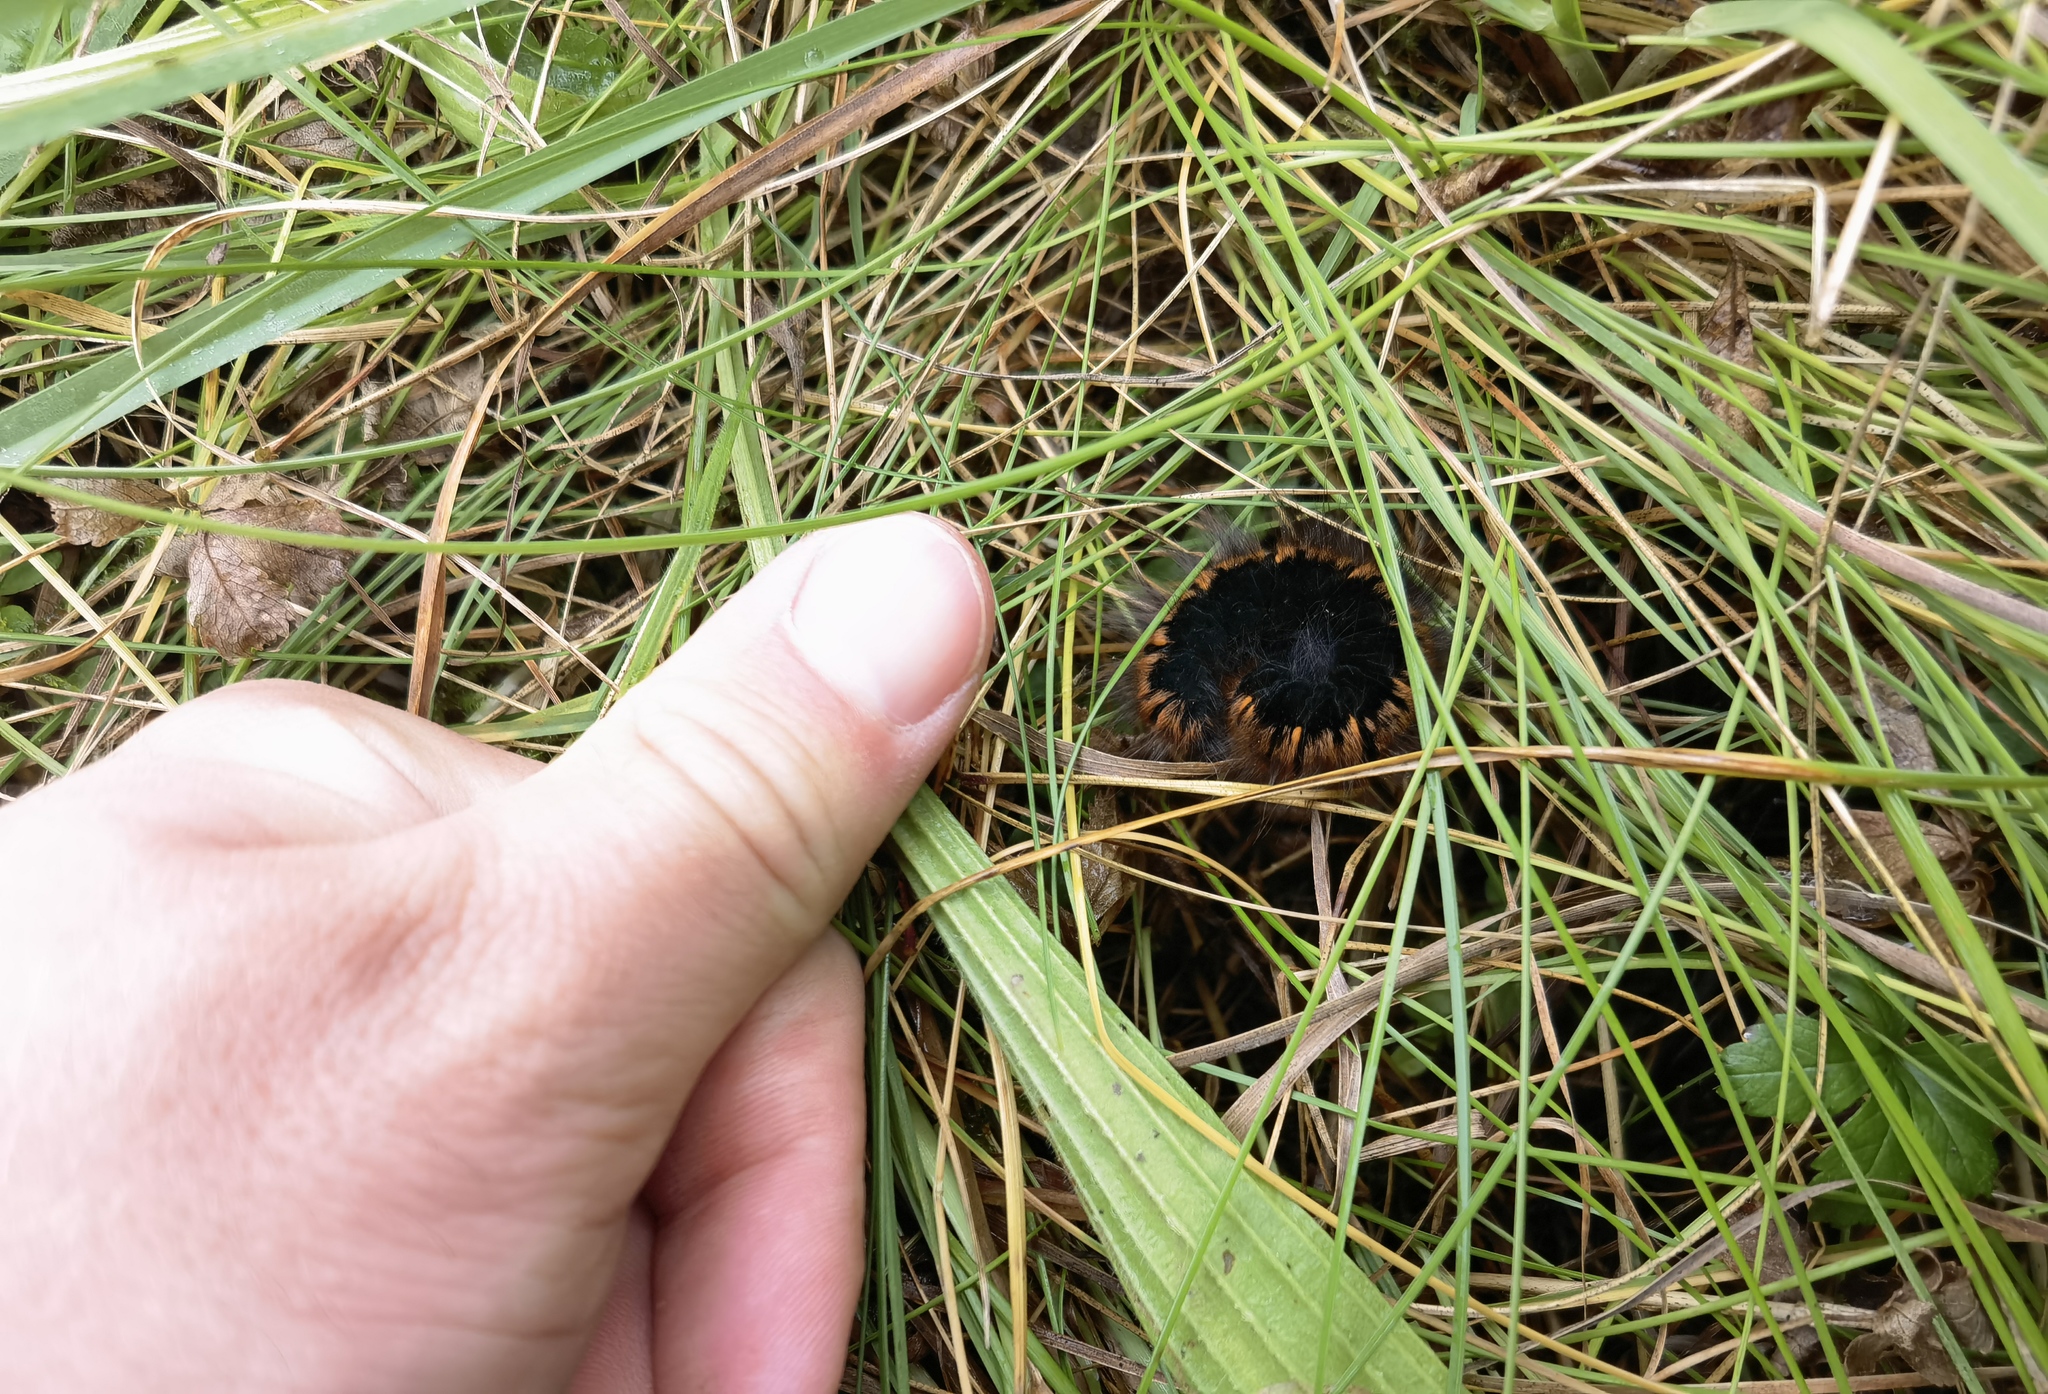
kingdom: Animalia
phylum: Arthropoda
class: Insecta
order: Lepidoptera
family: Lasiocampidae
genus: Macrothylacia
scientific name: Macrothylacia rubi
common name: Fox moth
